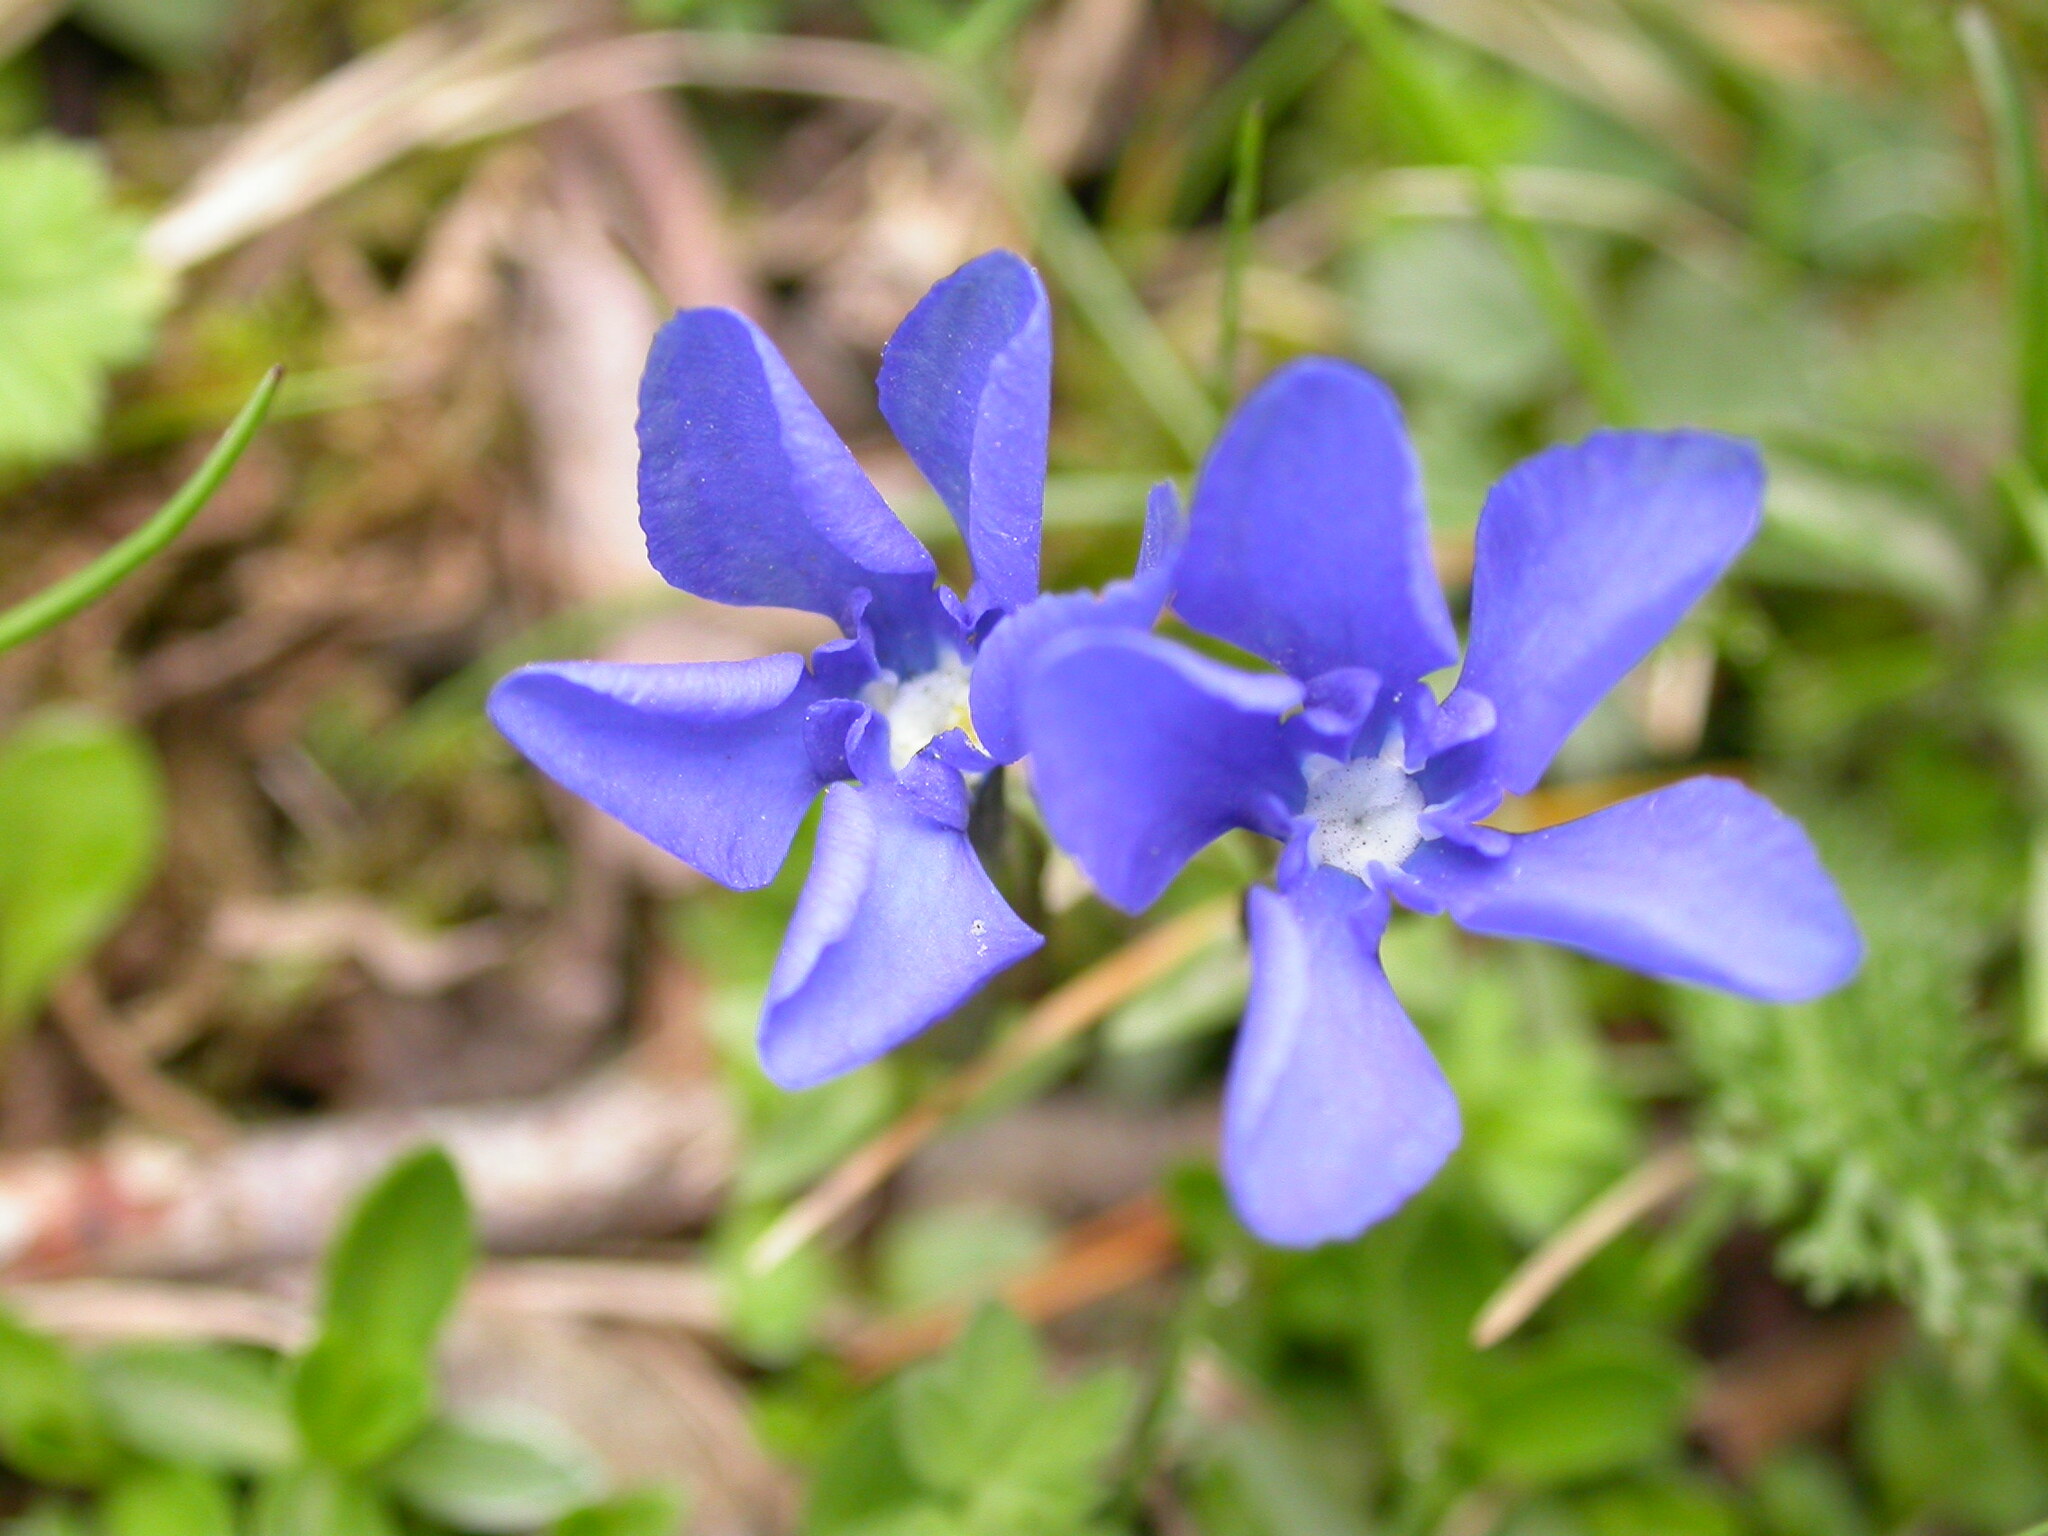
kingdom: Plantae
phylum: Tracheophyta
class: Magnoliopsida
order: Gentianales
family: Gentianaceae
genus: Gentiana
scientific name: Gentiana verna
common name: Spring gentian
